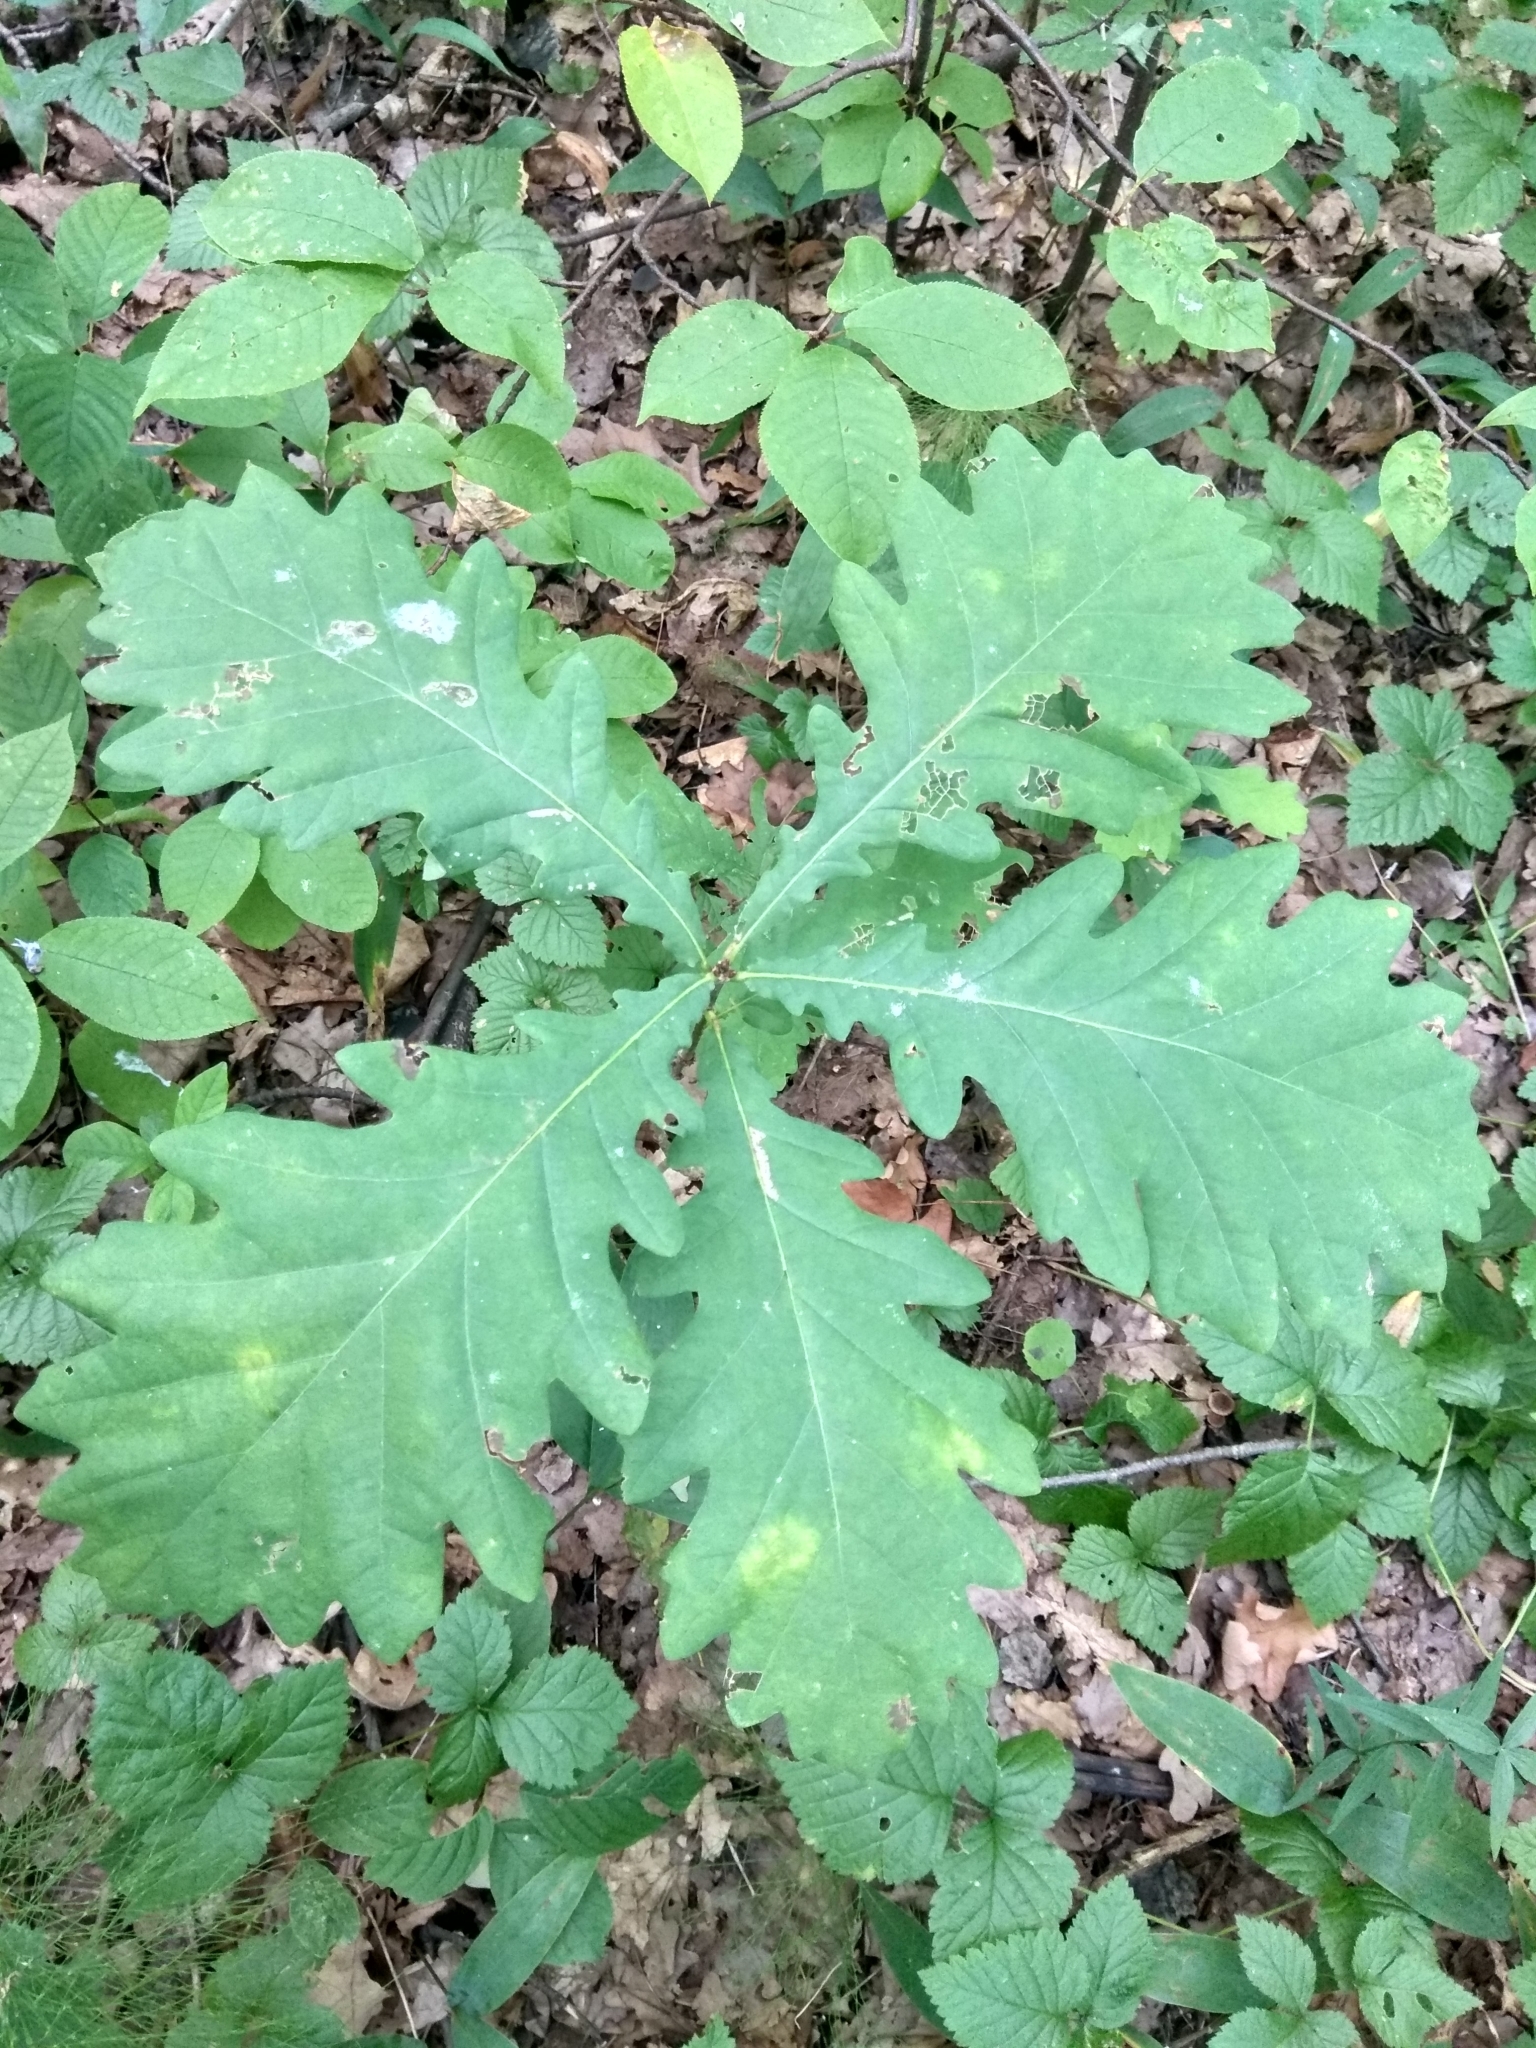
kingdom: Plantae
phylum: Tracheophyta
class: Magnoliopsida
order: Fagales
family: Fagaceae
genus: Quercus
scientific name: Quercus robur
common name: Pedunculate oak
